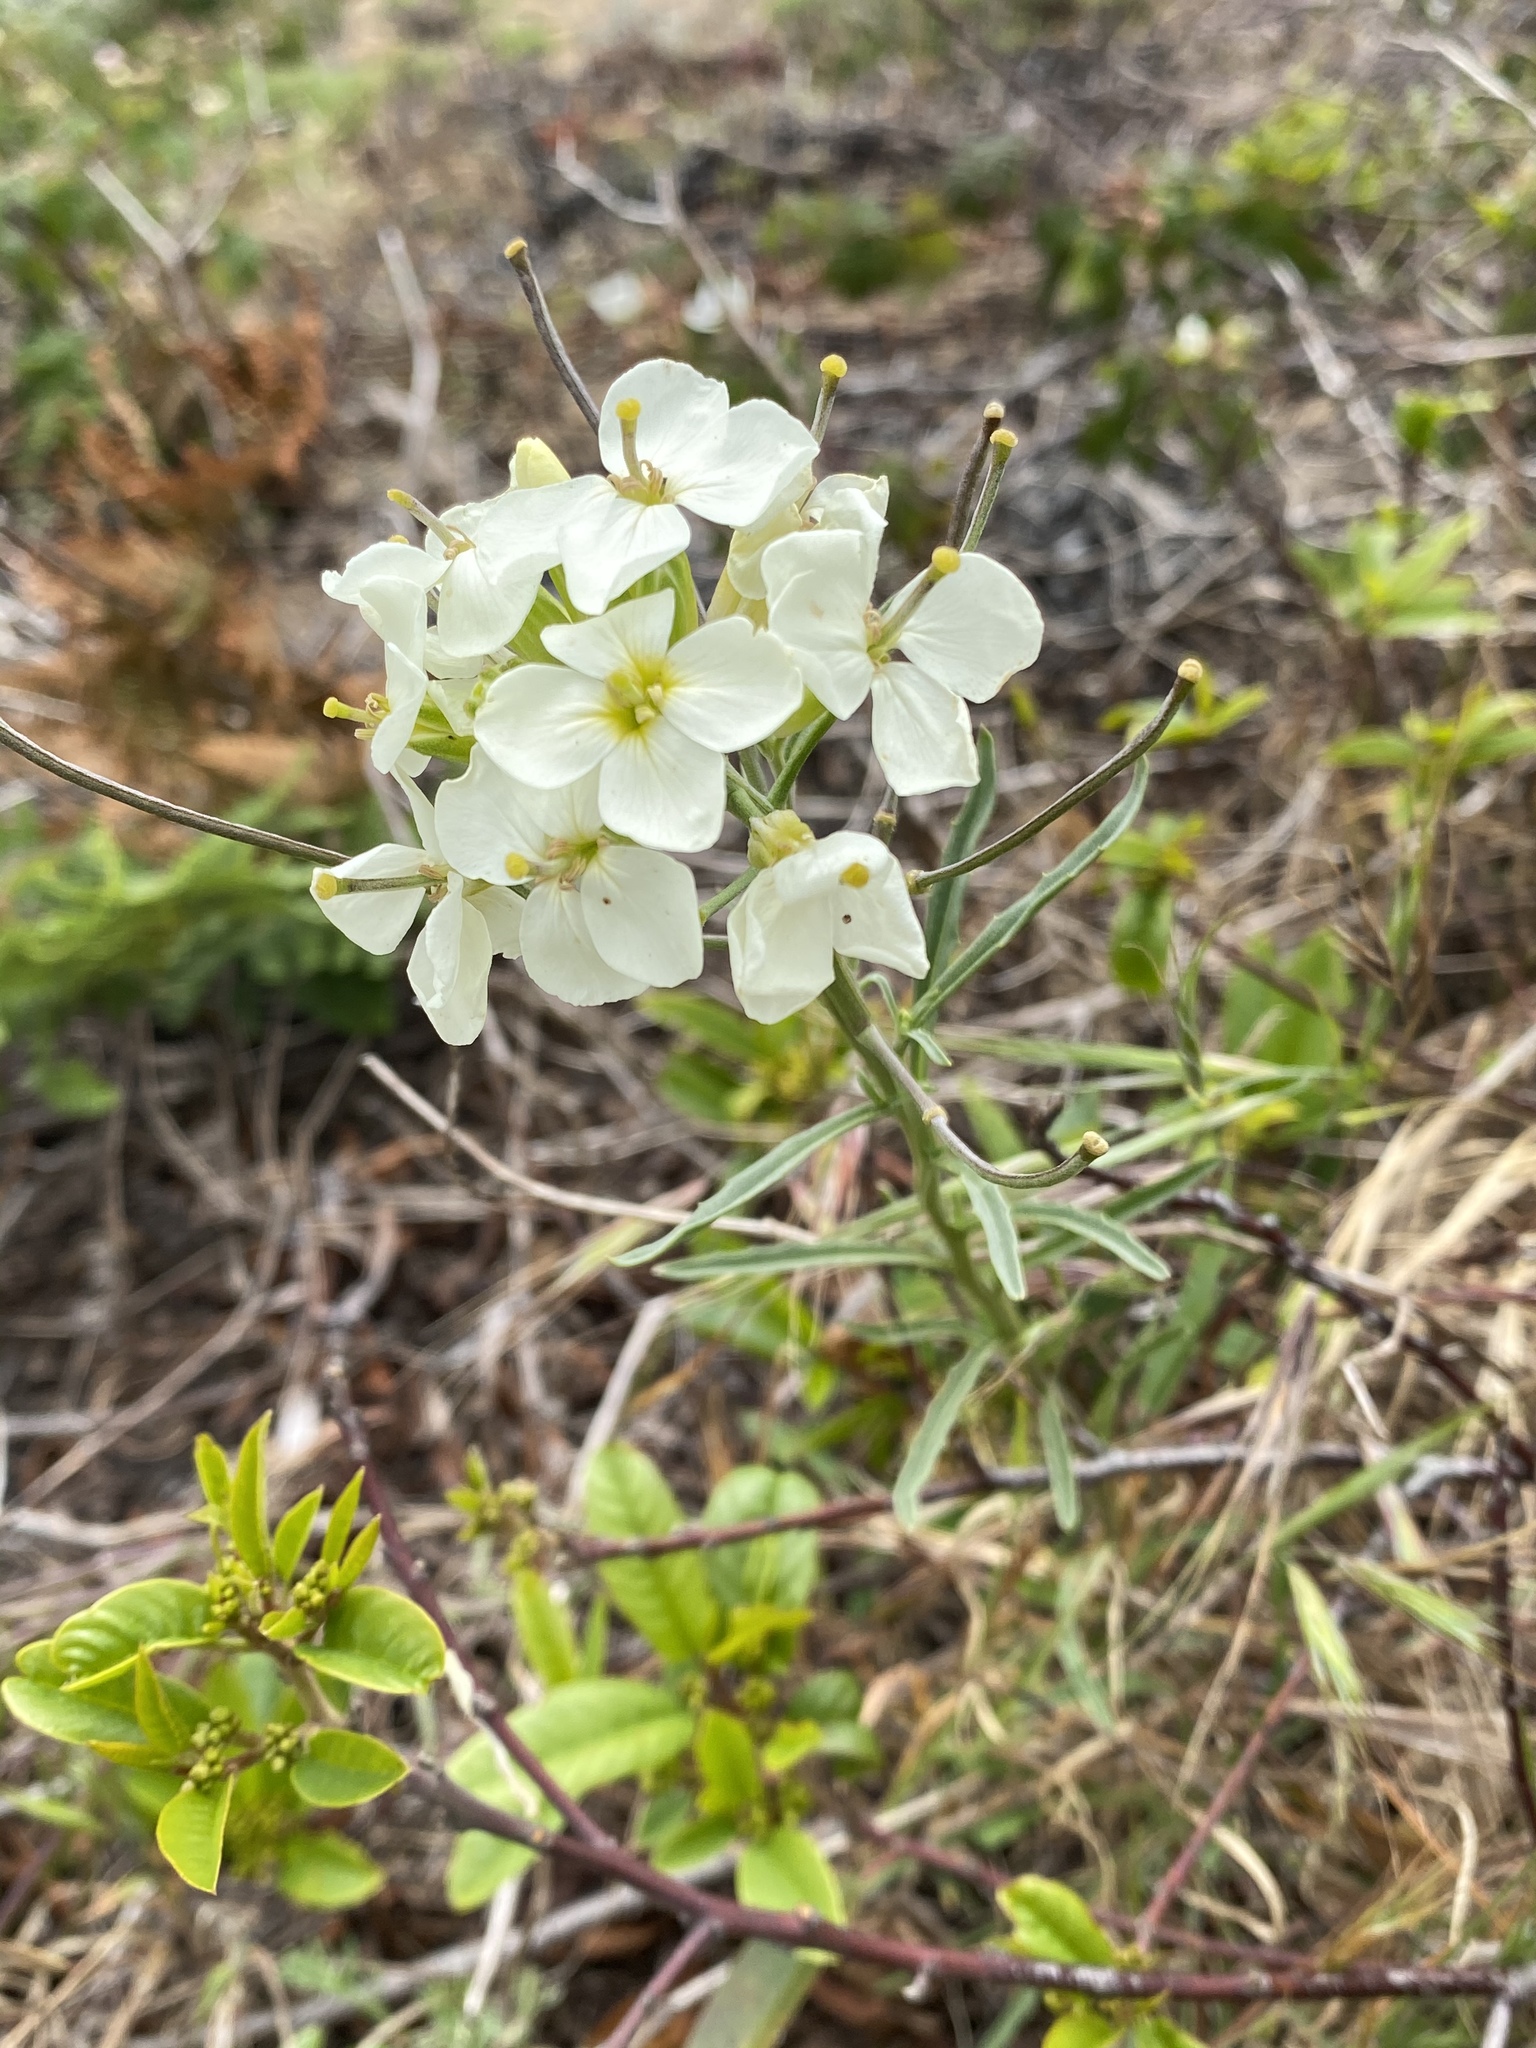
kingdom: Plantae
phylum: Tracheophyta
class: Magnoliopsida
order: Brassicales
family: Brassicaceae
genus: Erysimum
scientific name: Erysimum franciscanum
